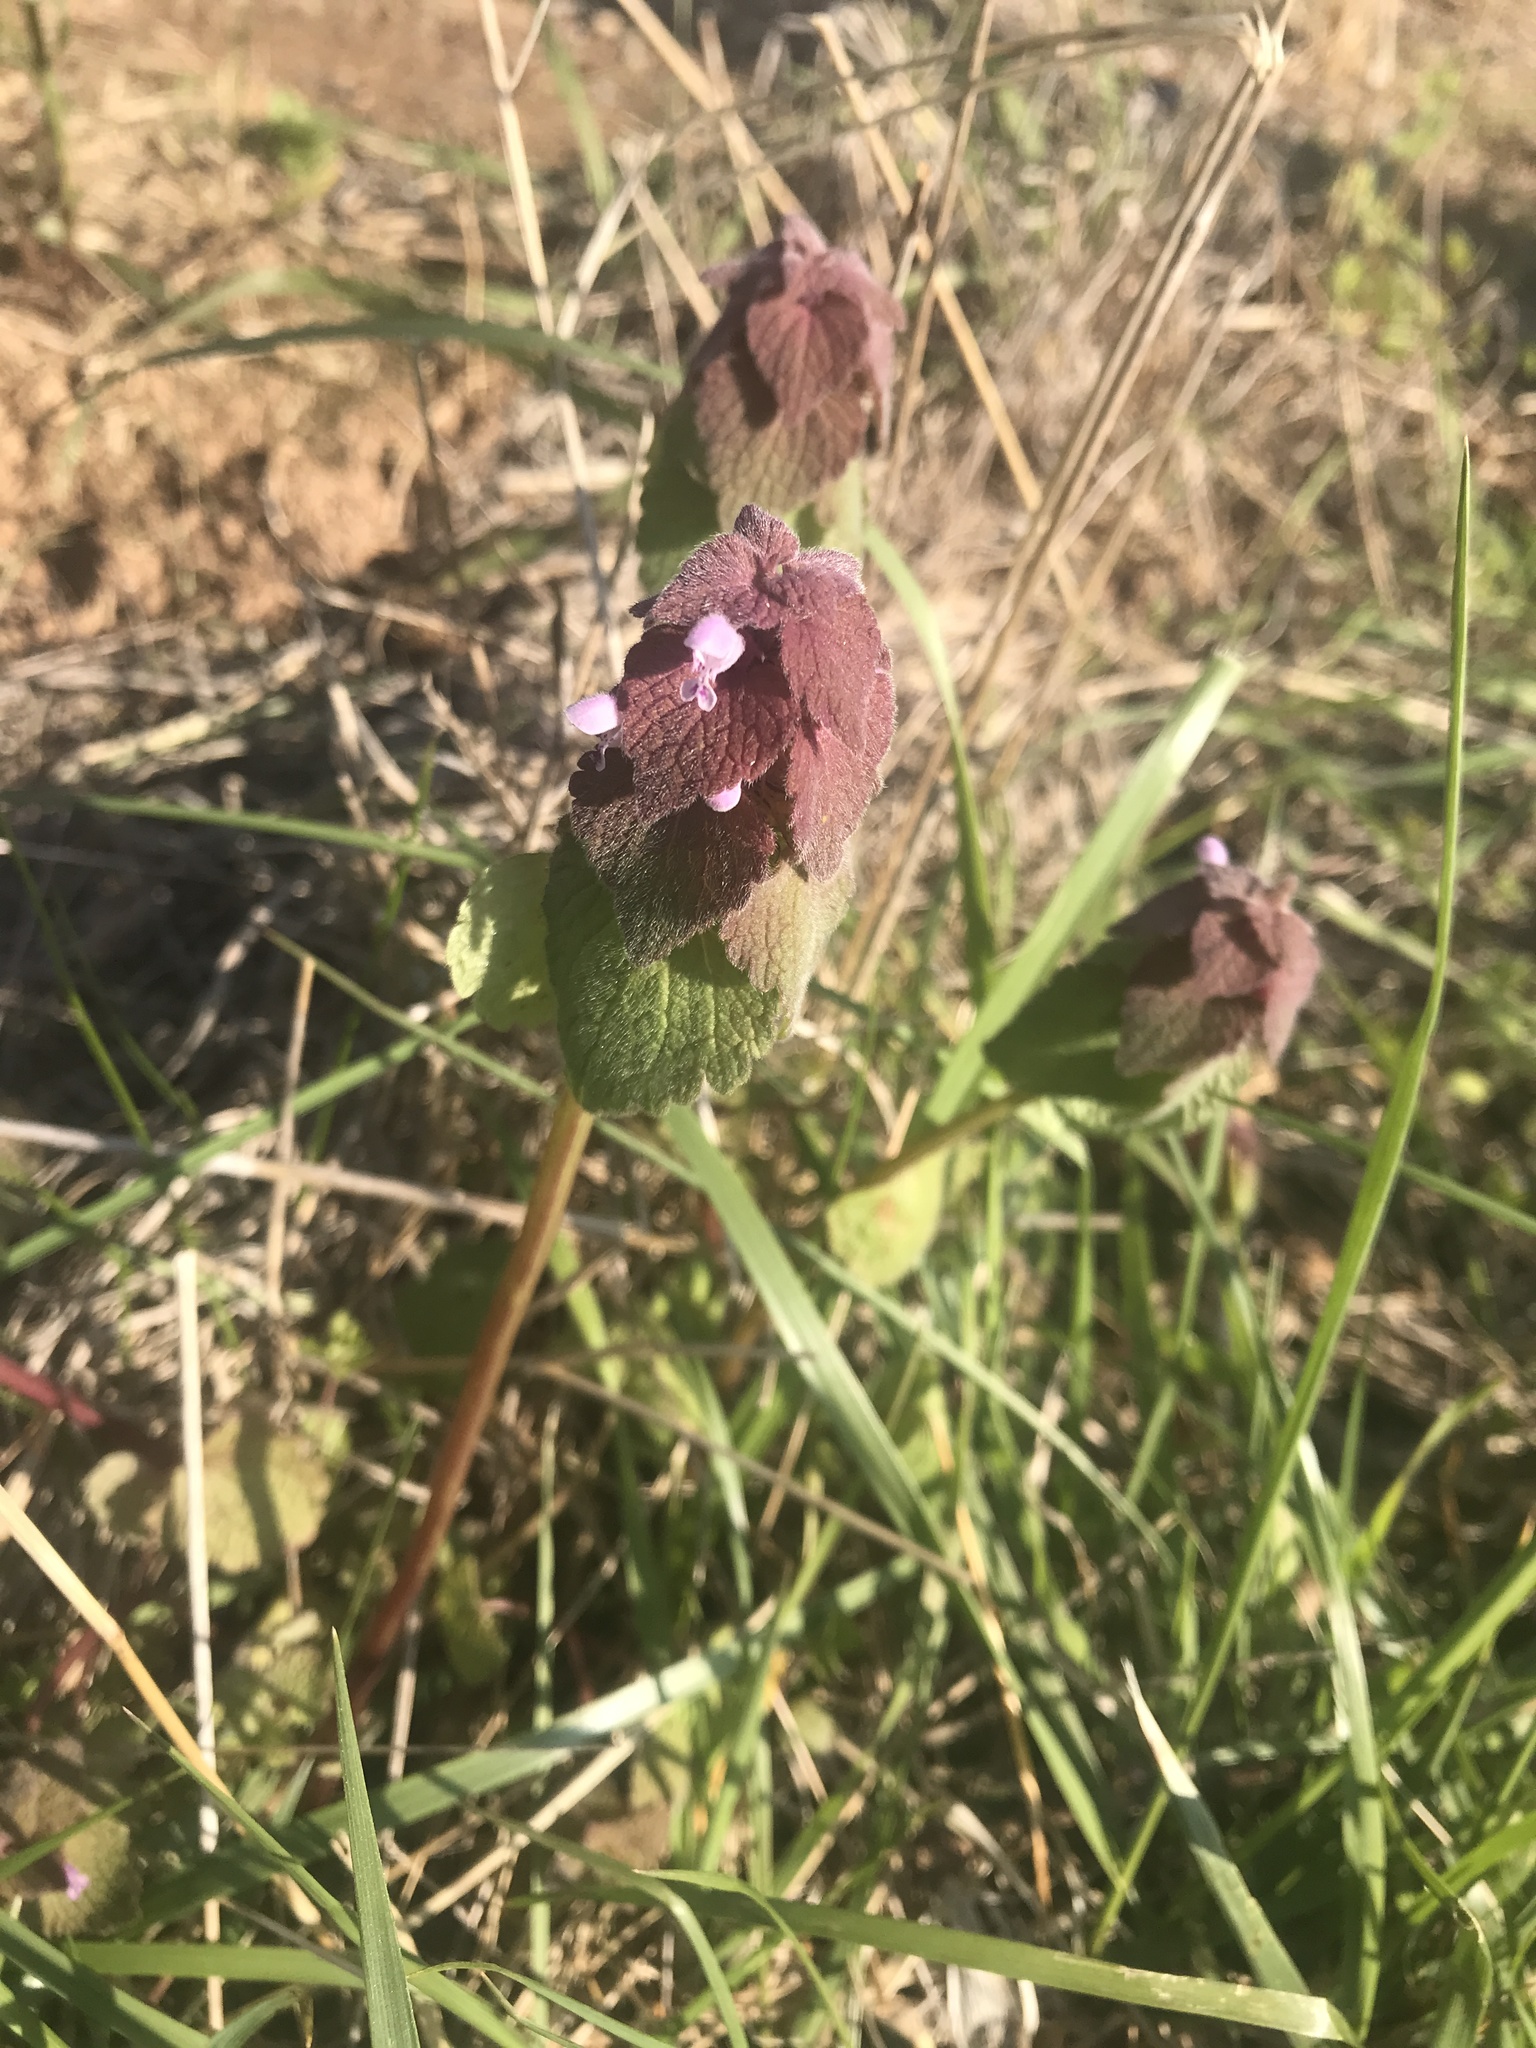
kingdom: Plantae
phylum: Tracheophyta
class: Magnoliopsida
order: Lamiales
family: Lamiaceae
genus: Lamium
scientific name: Lamium purpureum
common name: Red dead-nettle
